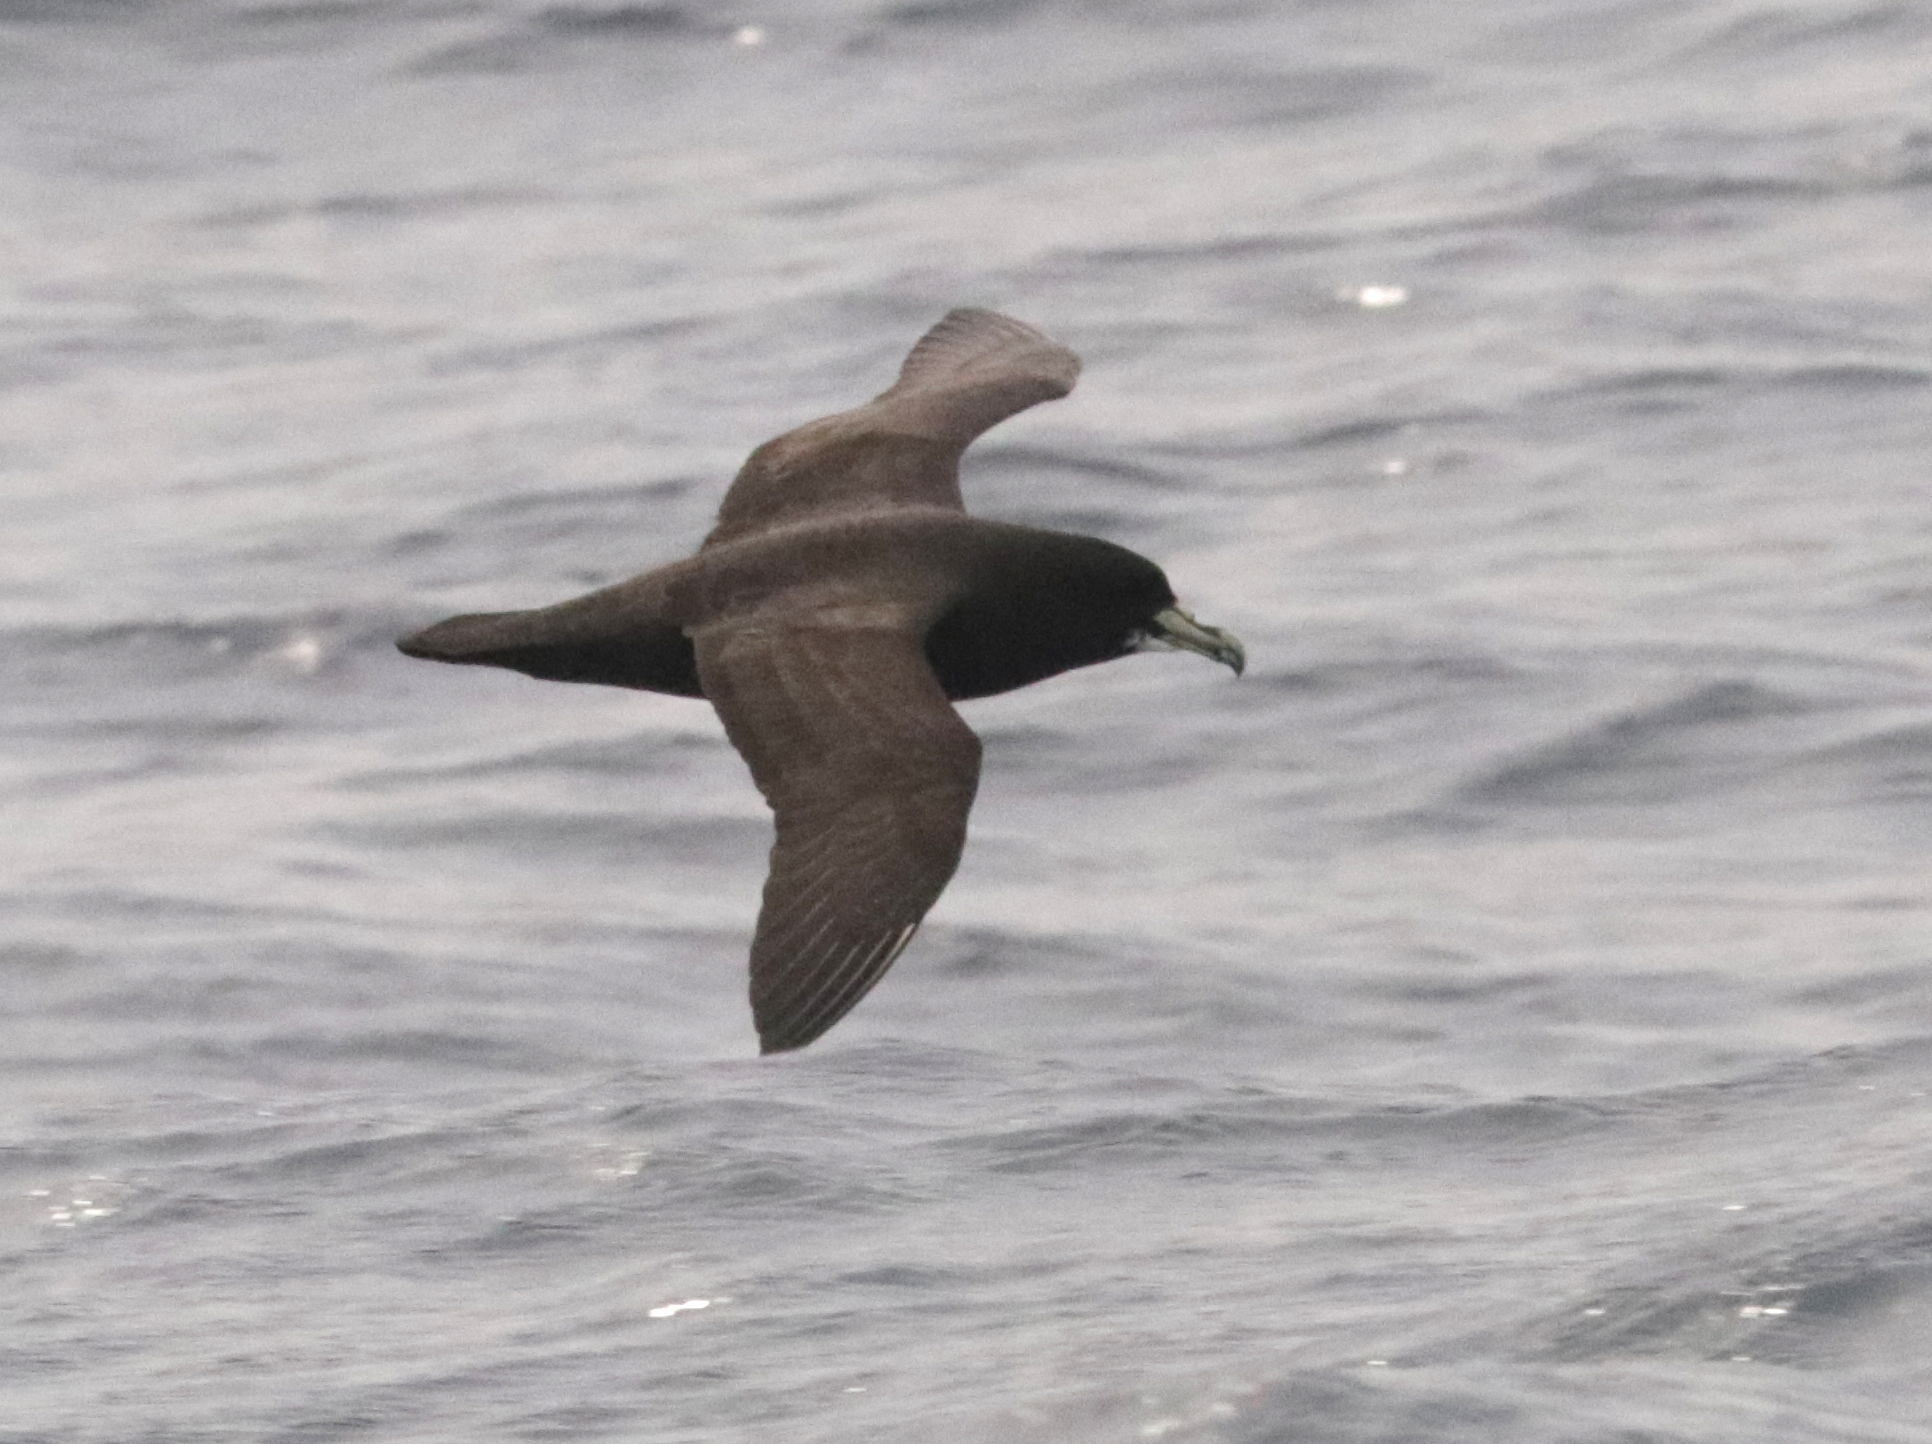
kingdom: Animalia
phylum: Chordata
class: Aves
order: Procellariiformes
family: Procellariidae
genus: Procellaria
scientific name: Procellaria aequinoctialis
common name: White-chinned petrel
